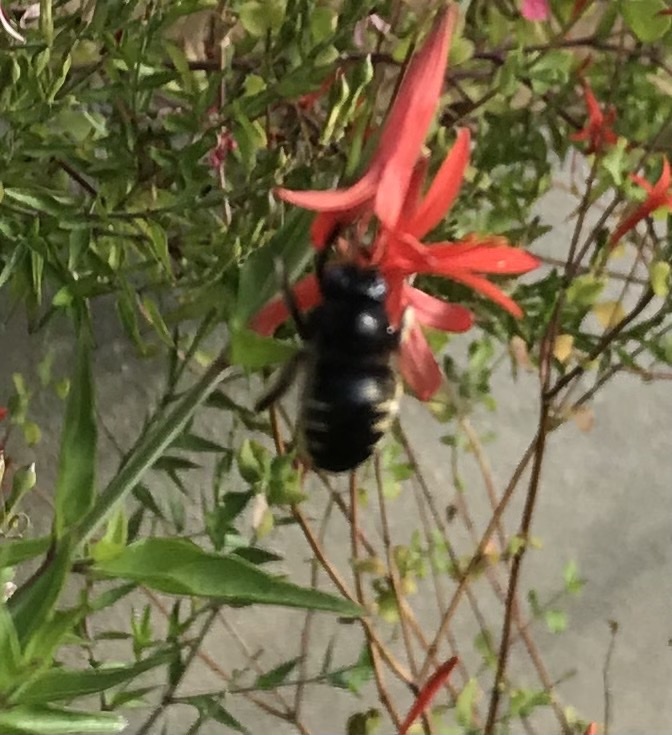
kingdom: Animalia
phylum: Arthropoda
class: Insecta
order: Hymenoptera
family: Apidae
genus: Xylocopa
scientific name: Xylocopa tabaniformis
